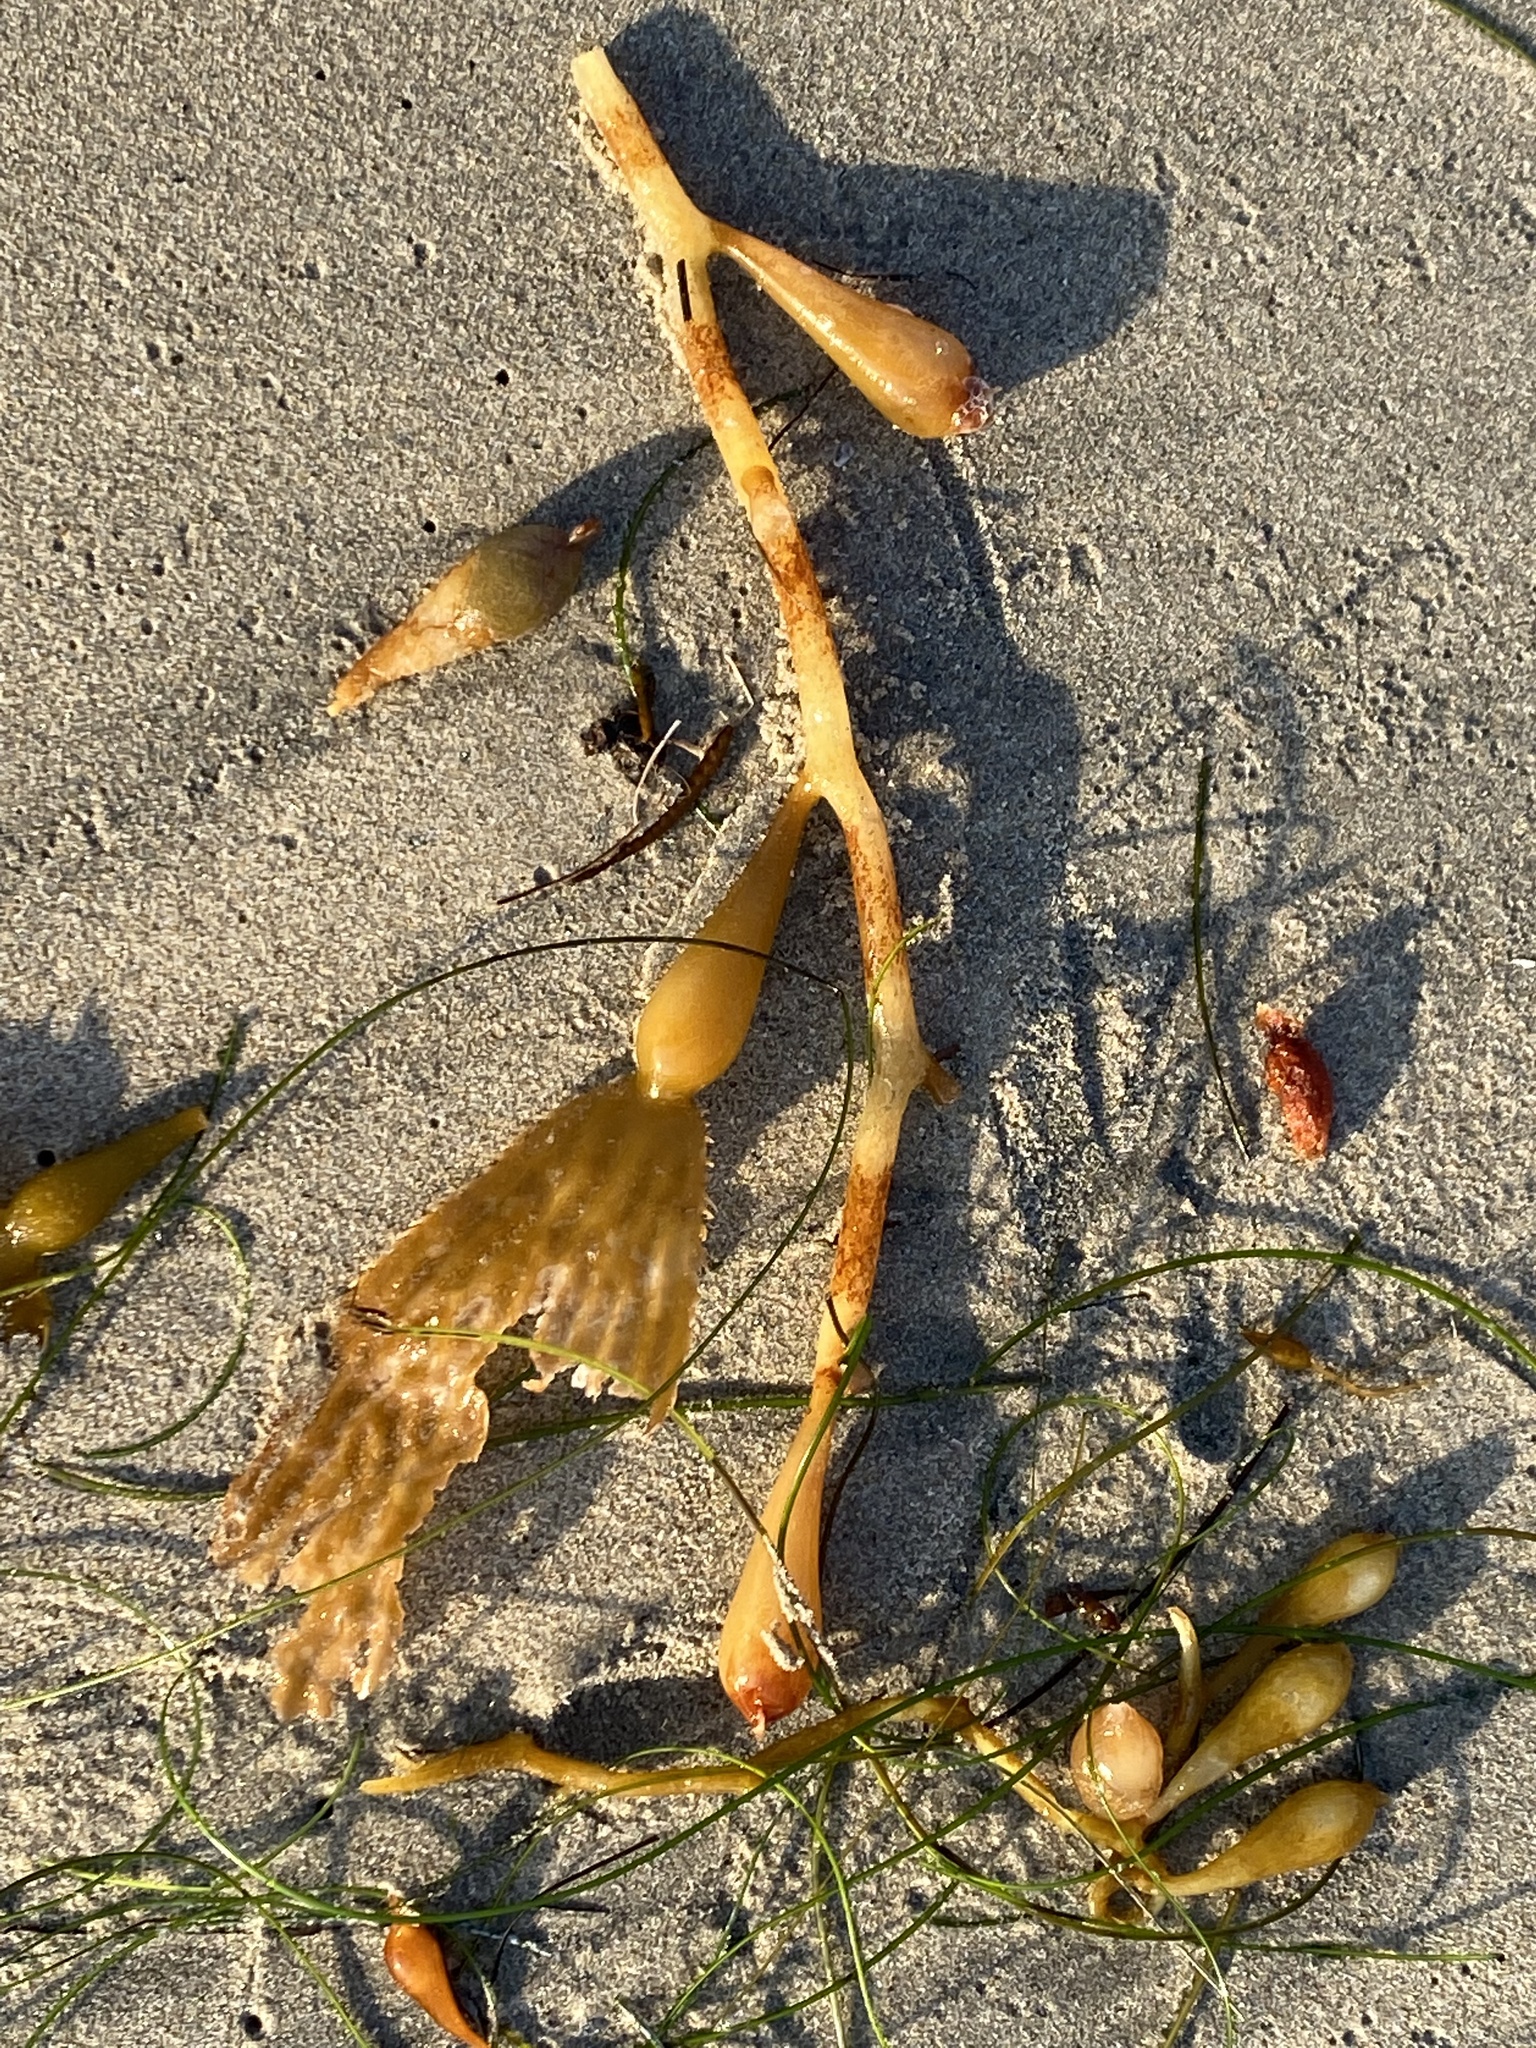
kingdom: Chromista
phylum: Ochrophyta
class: Phaeophyceae
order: Laminariales
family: Laminariaceae
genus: Macrocystis
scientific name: Macrocystis pyrifera
